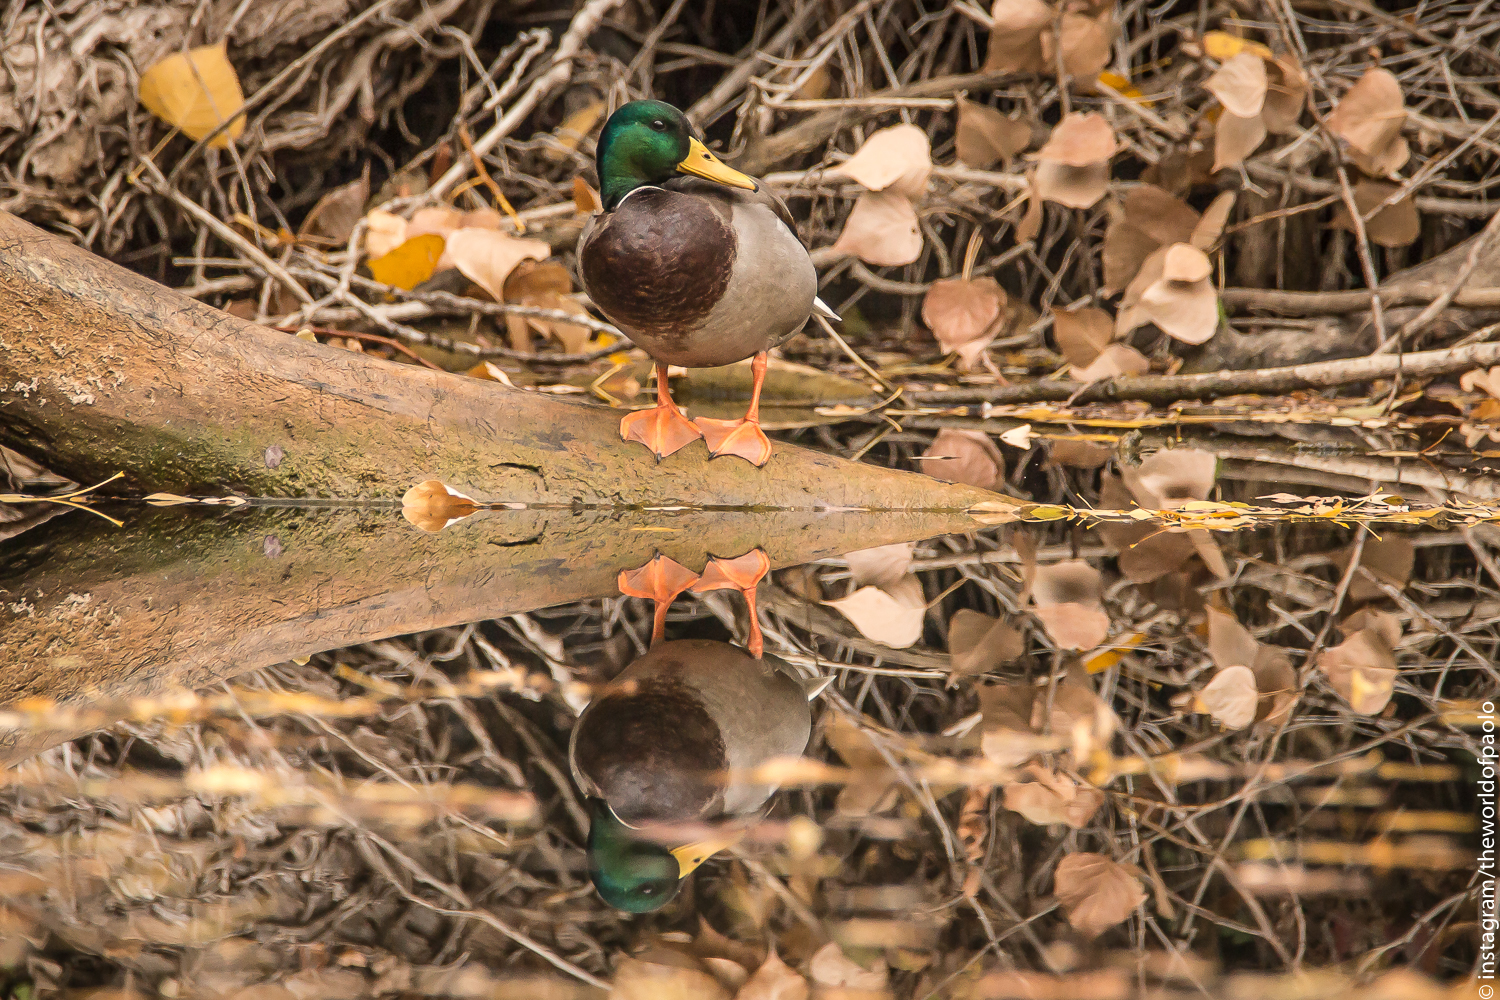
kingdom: Animalia
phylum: Chordata
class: Aves
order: Anseriformes
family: Anatidae
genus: Anas
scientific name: Anas platyrhynchos
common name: Mallard
